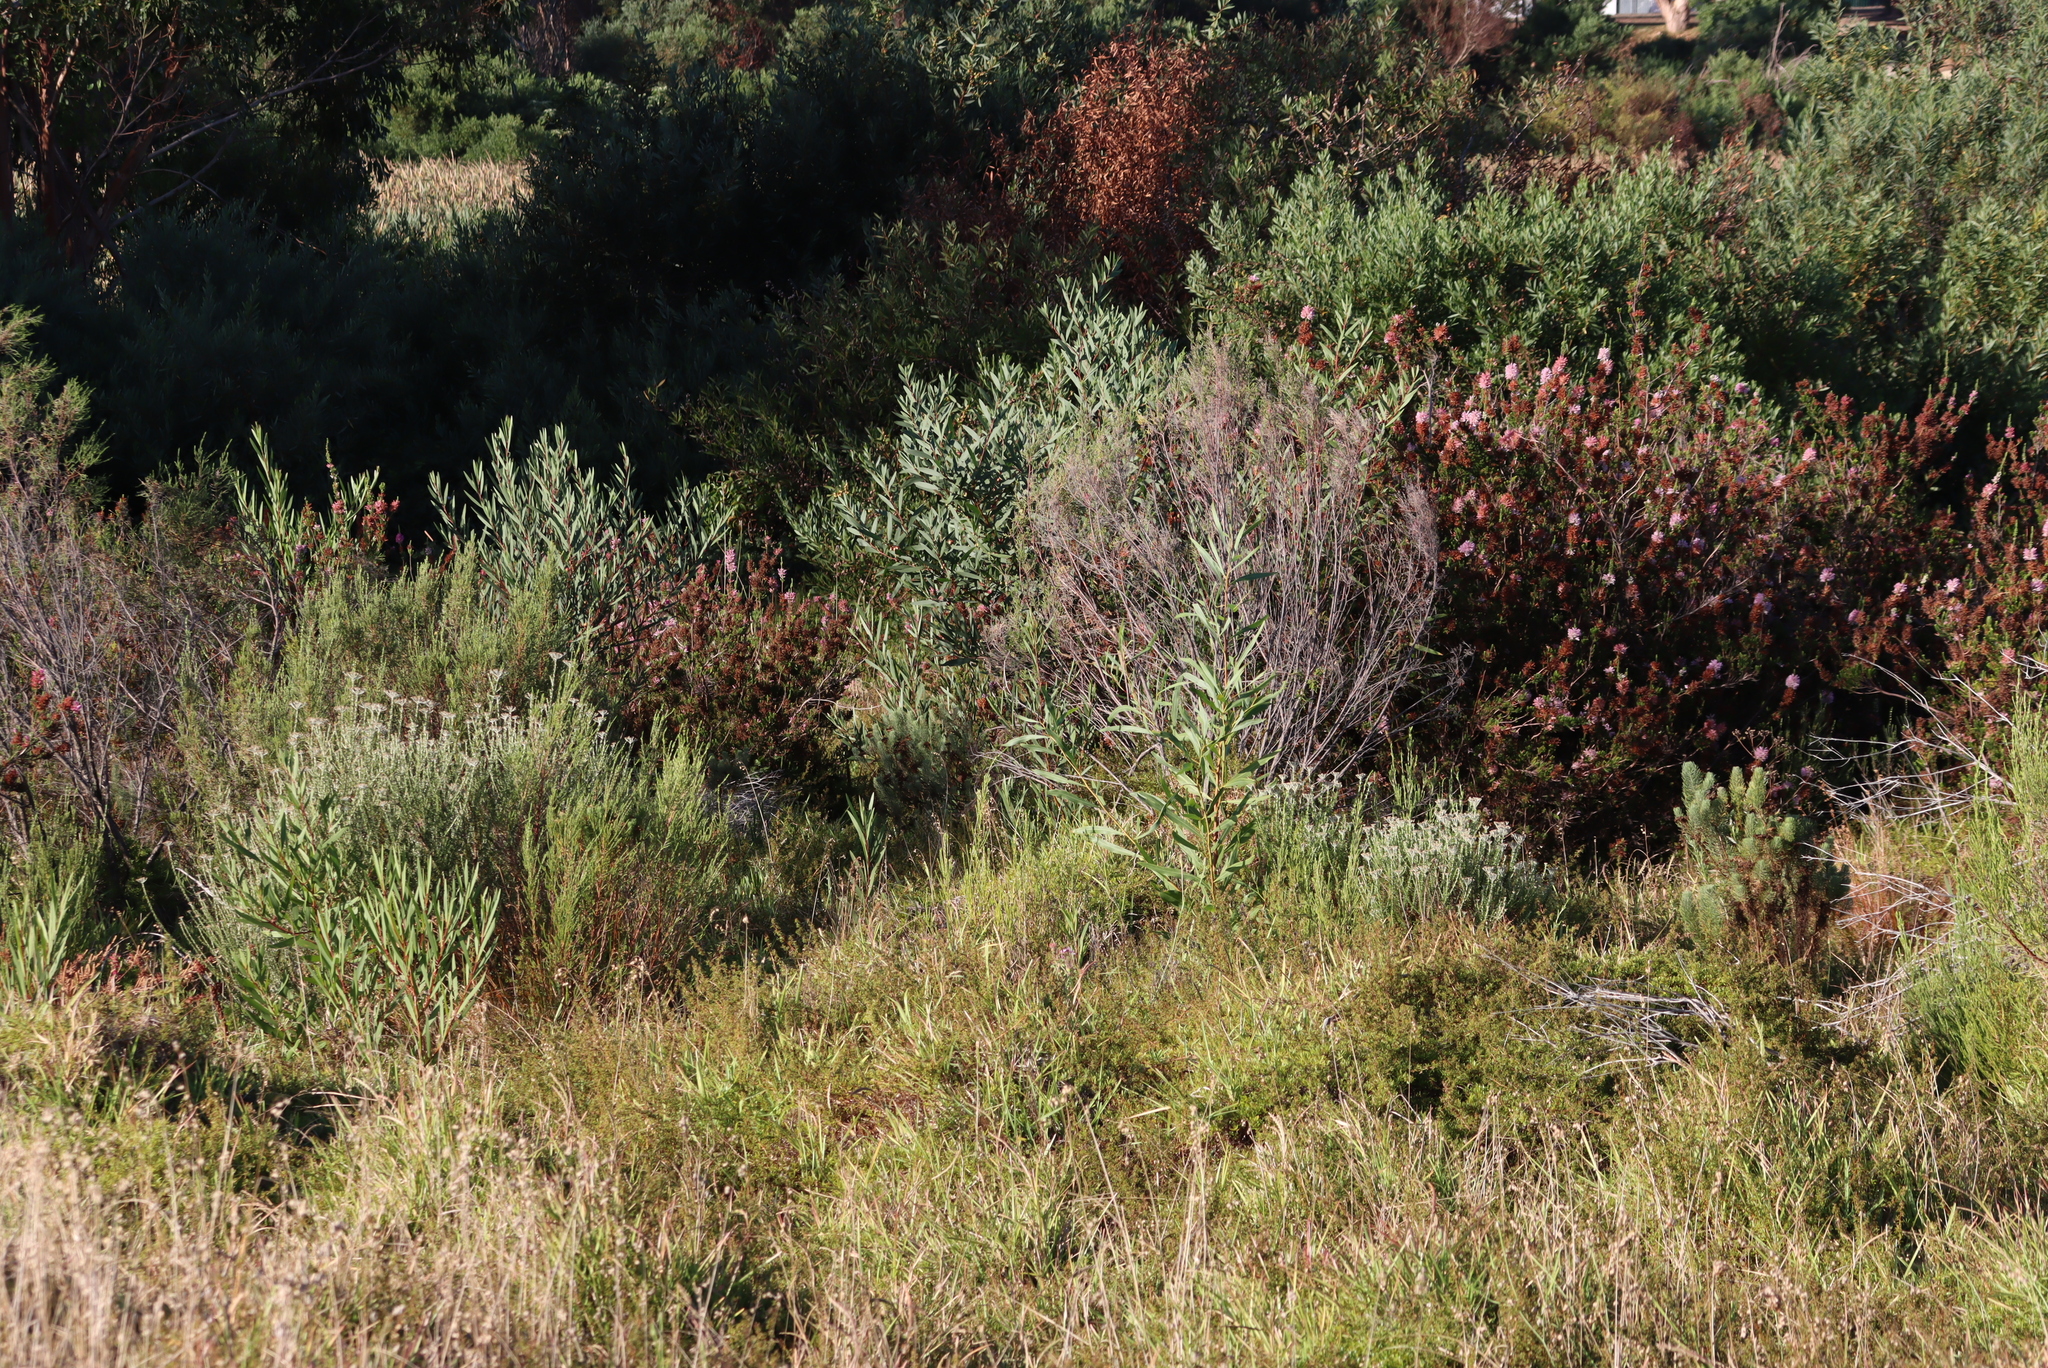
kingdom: Plantae
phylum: Tracheophyta
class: Magnoliopsida
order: Fabales
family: Fabaceae
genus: Acacia
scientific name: Acacia saligna
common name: Orange wattle
